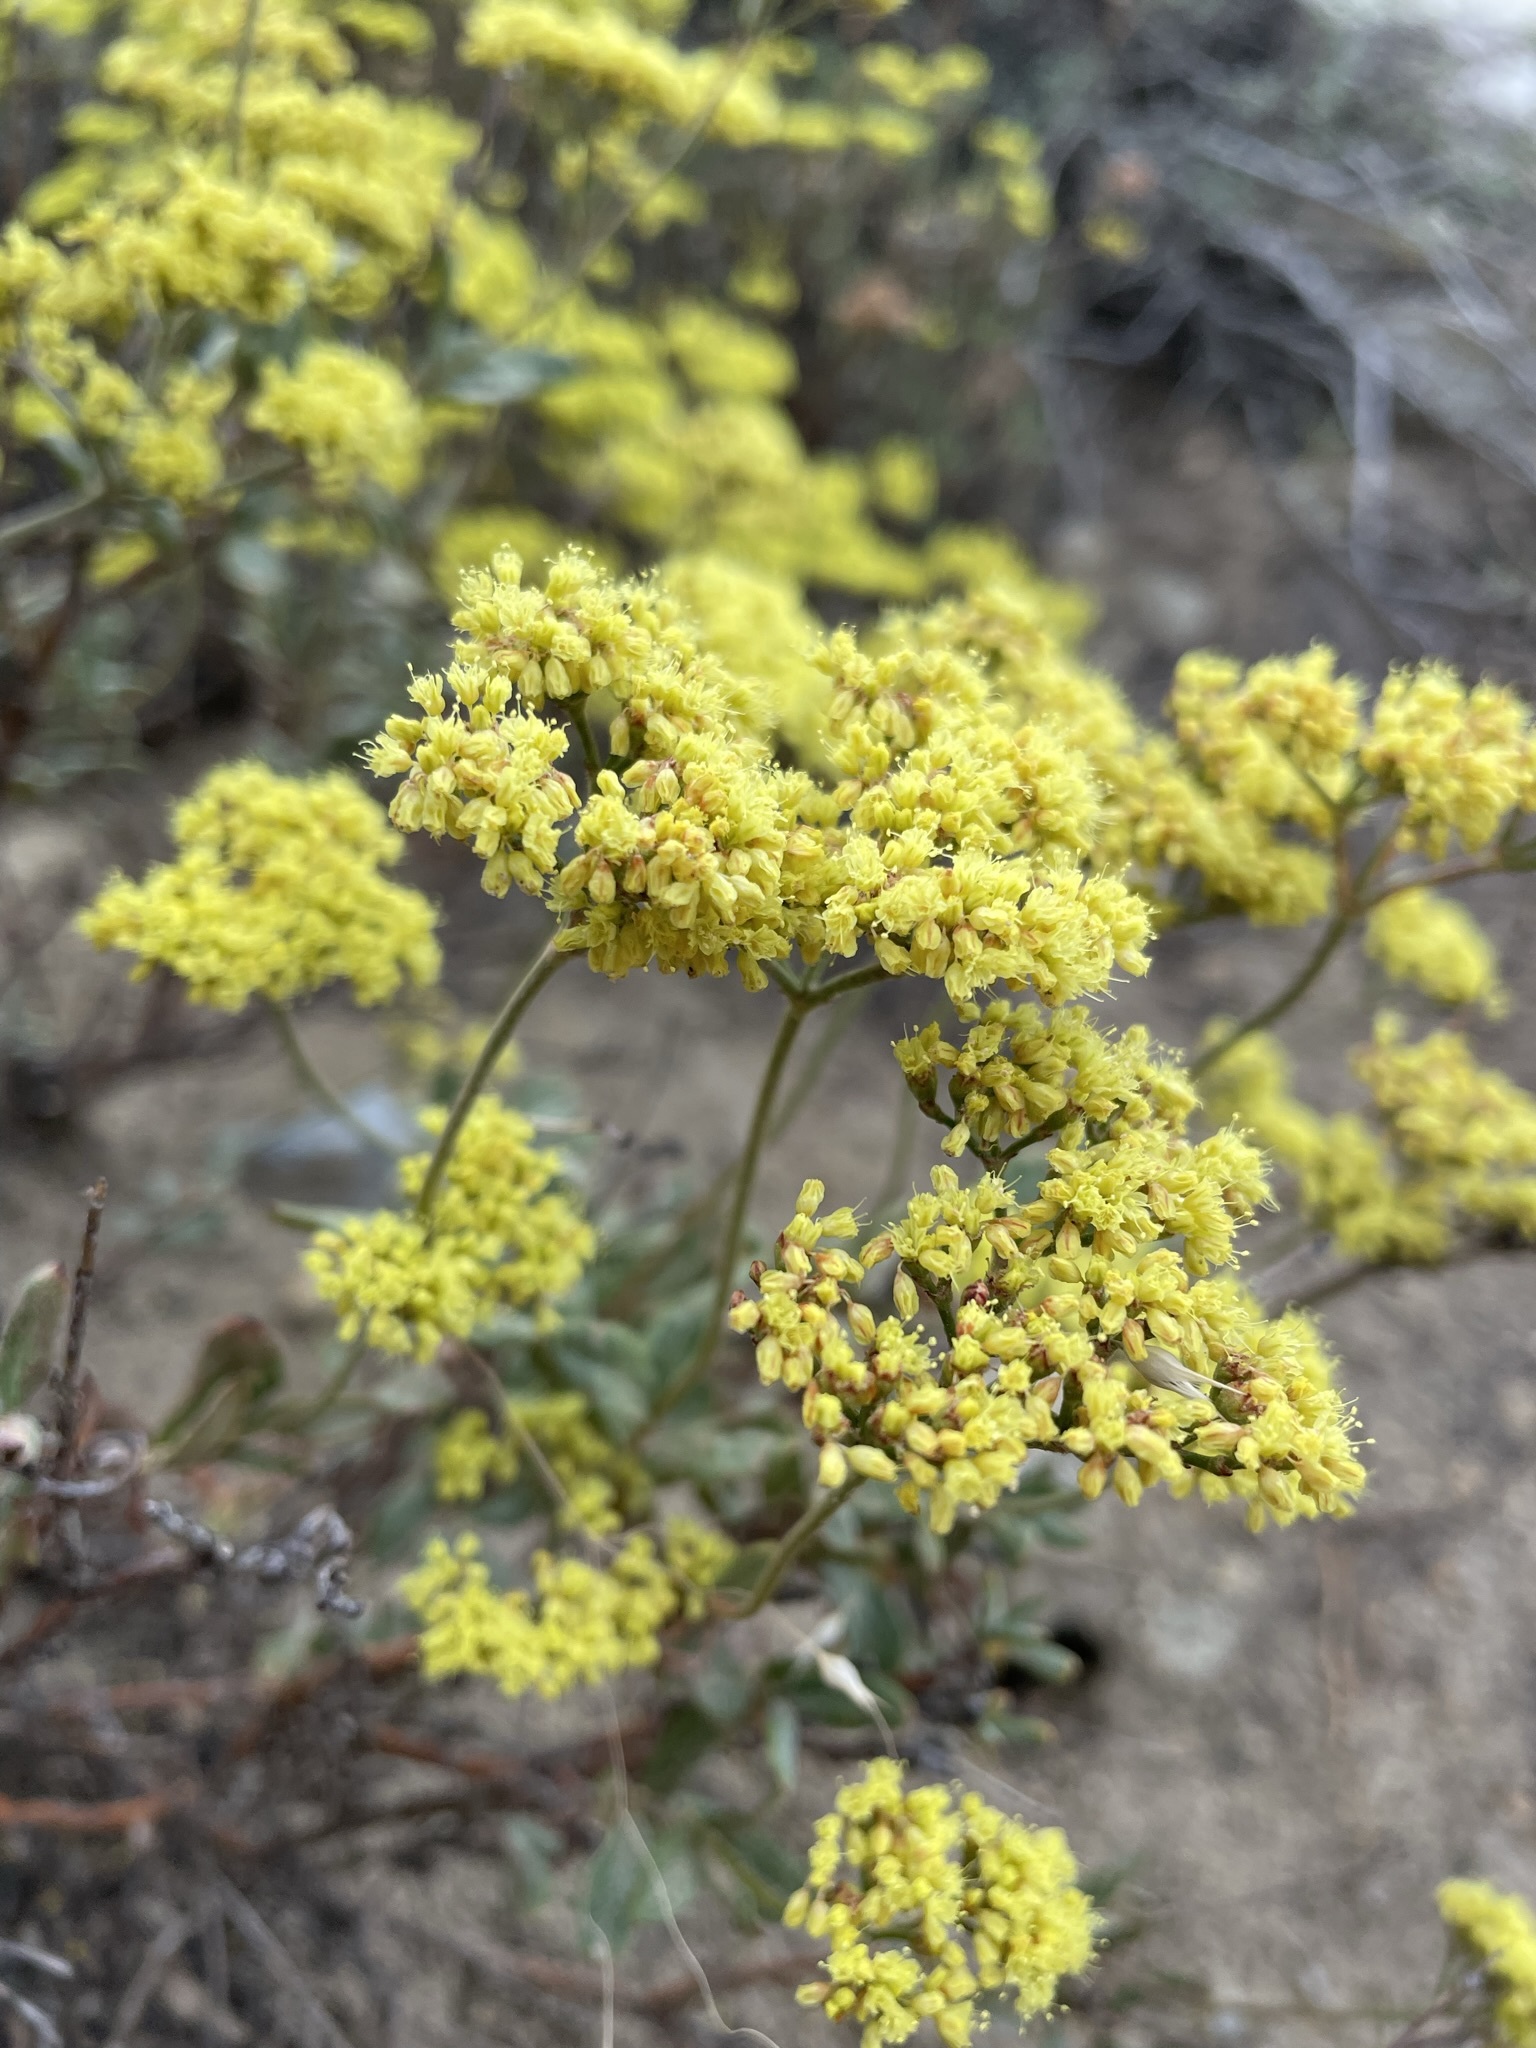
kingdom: Plantae
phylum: Tracheophyta
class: Magnoliopsida
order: Caryophyllales
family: Polygonaceae
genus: Eriogonum
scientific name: Eriogonum microtheca
